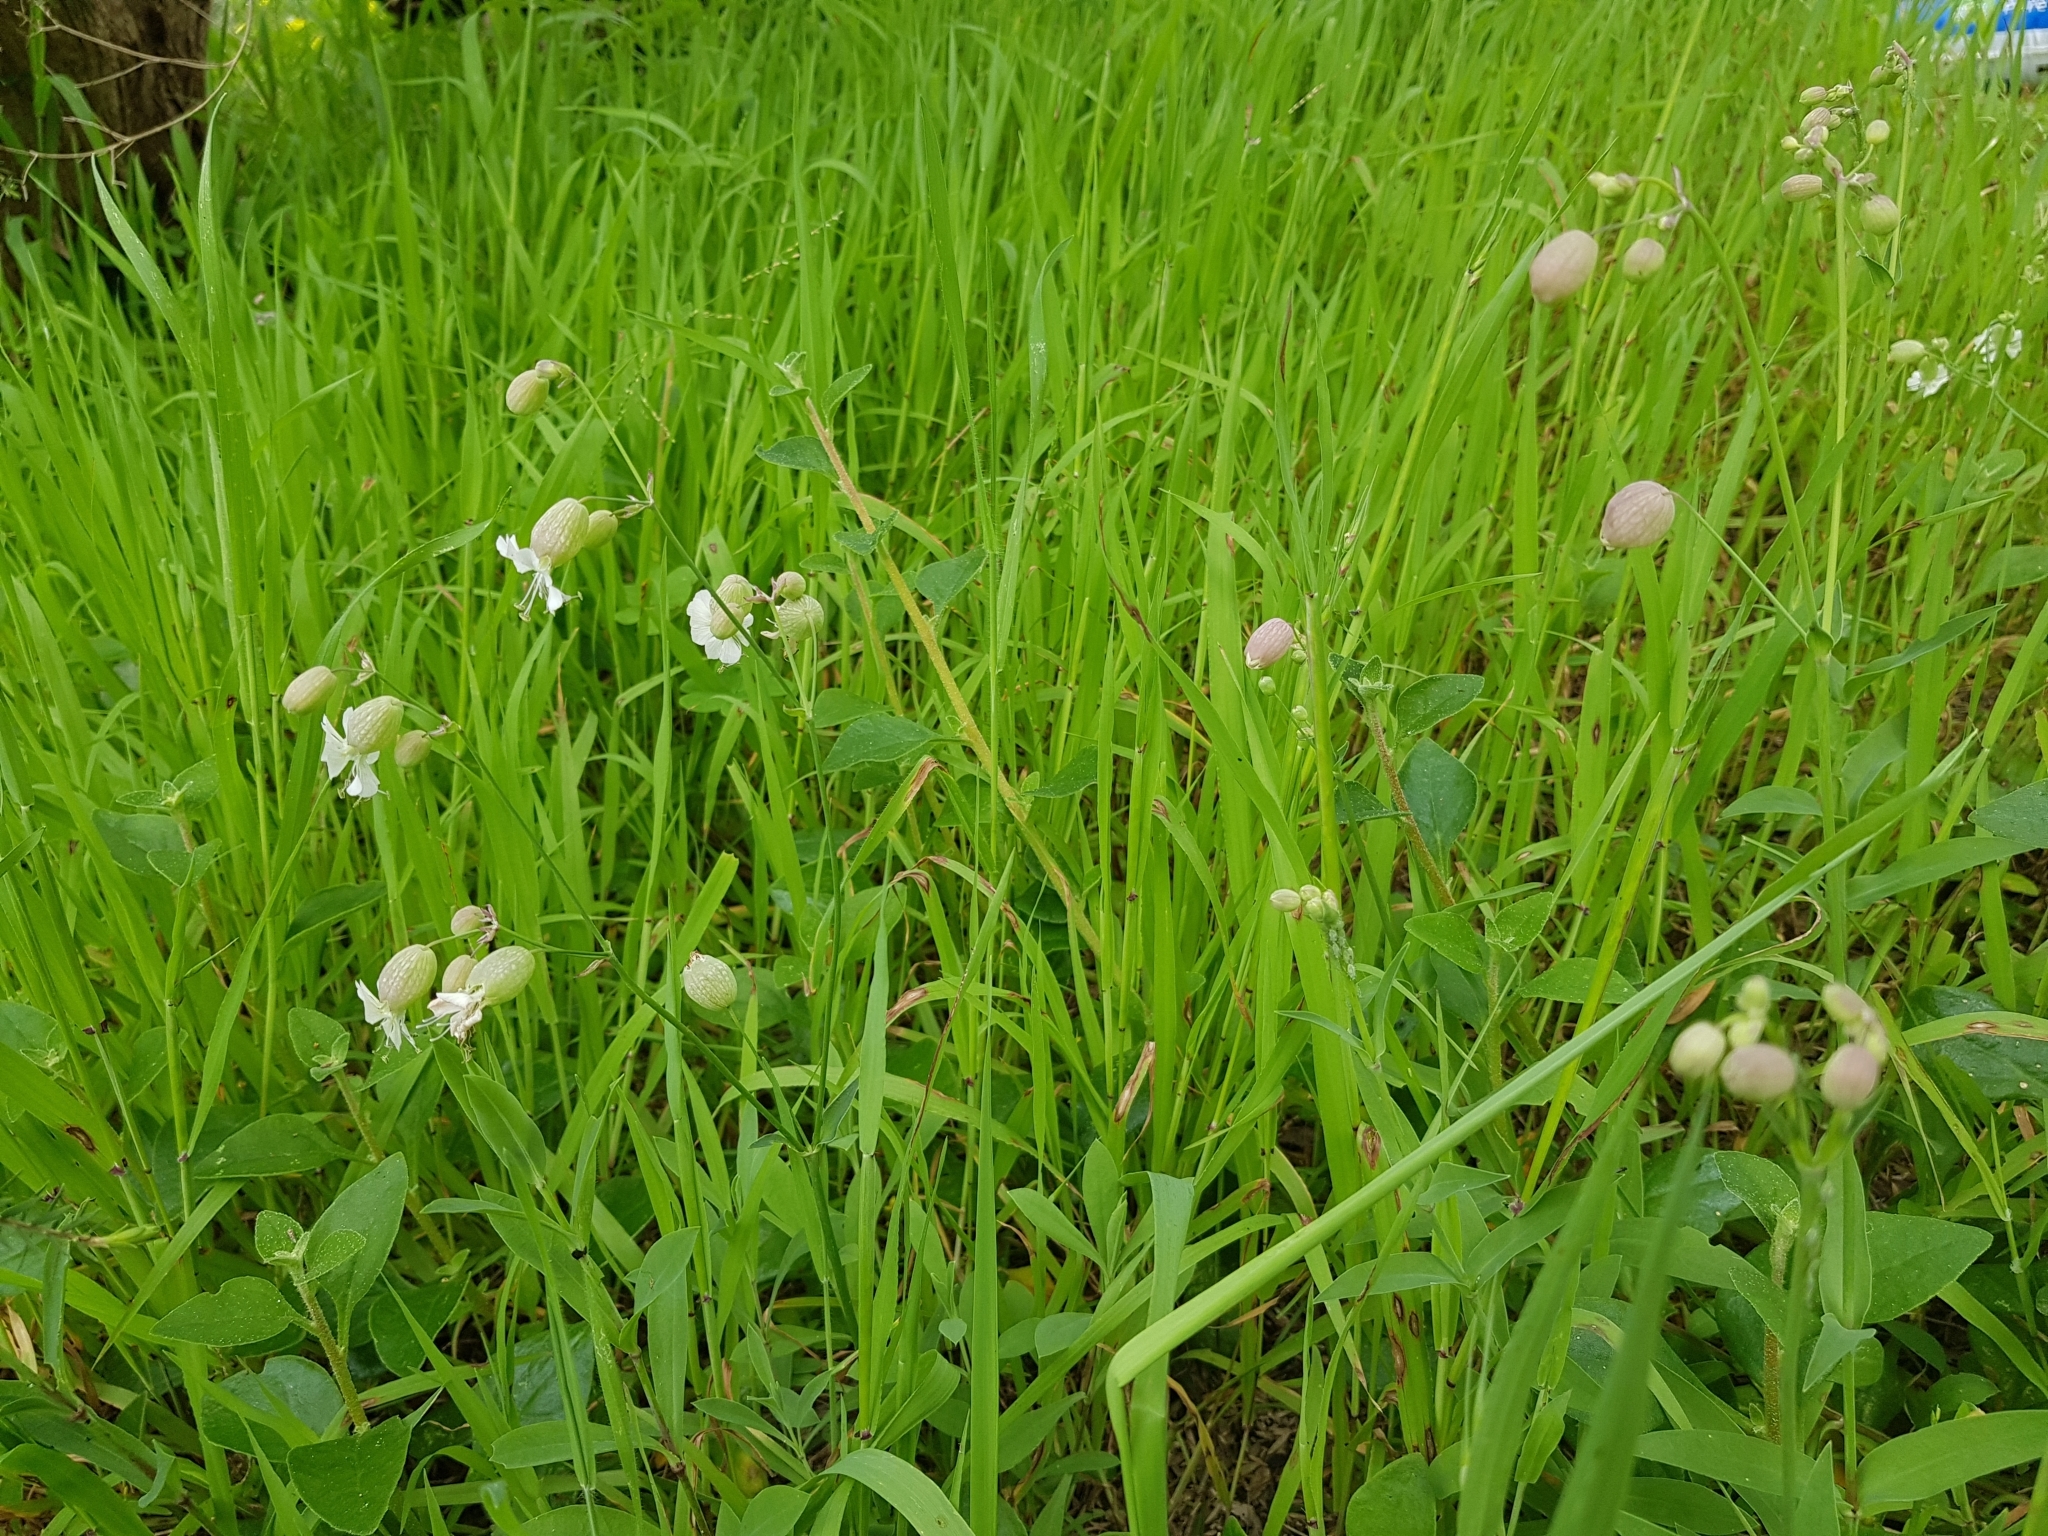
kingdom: Plantae
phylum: Tracheophyta
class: Magnoliopsida
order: Caryophyllales
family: Caryophyllaceae
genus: Silene
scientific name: Silene vulgaris
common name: Bladder campion
